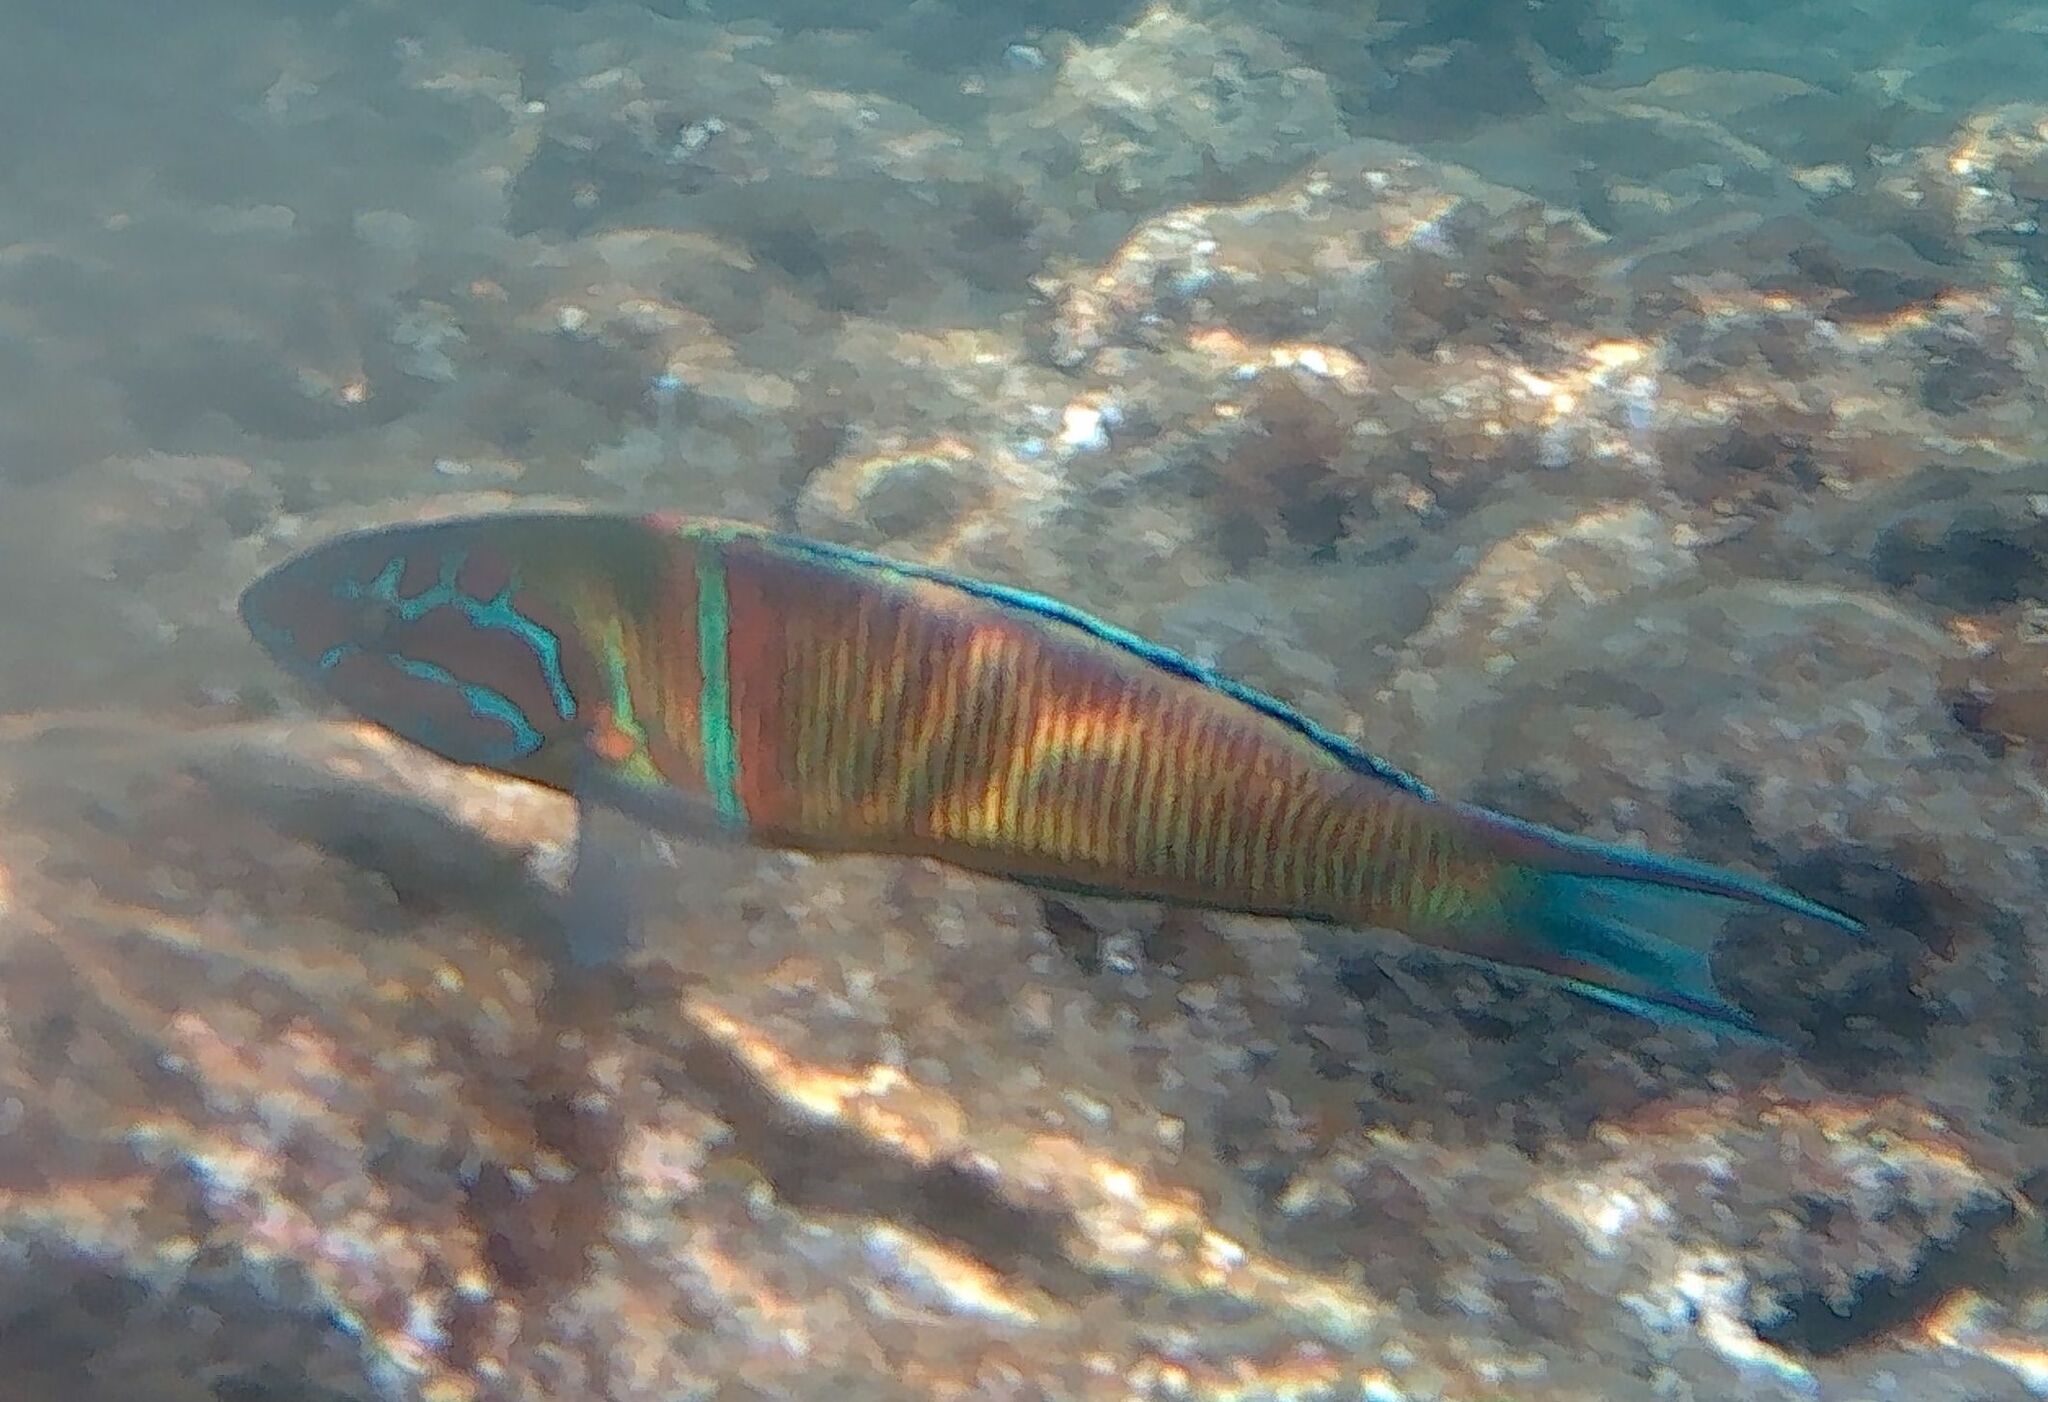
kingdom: Animalia
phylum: Chordata
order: Perciformes
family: Labridae
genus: Thalassoma
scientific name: Thalassoma pavo
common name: Ornate wrasse
